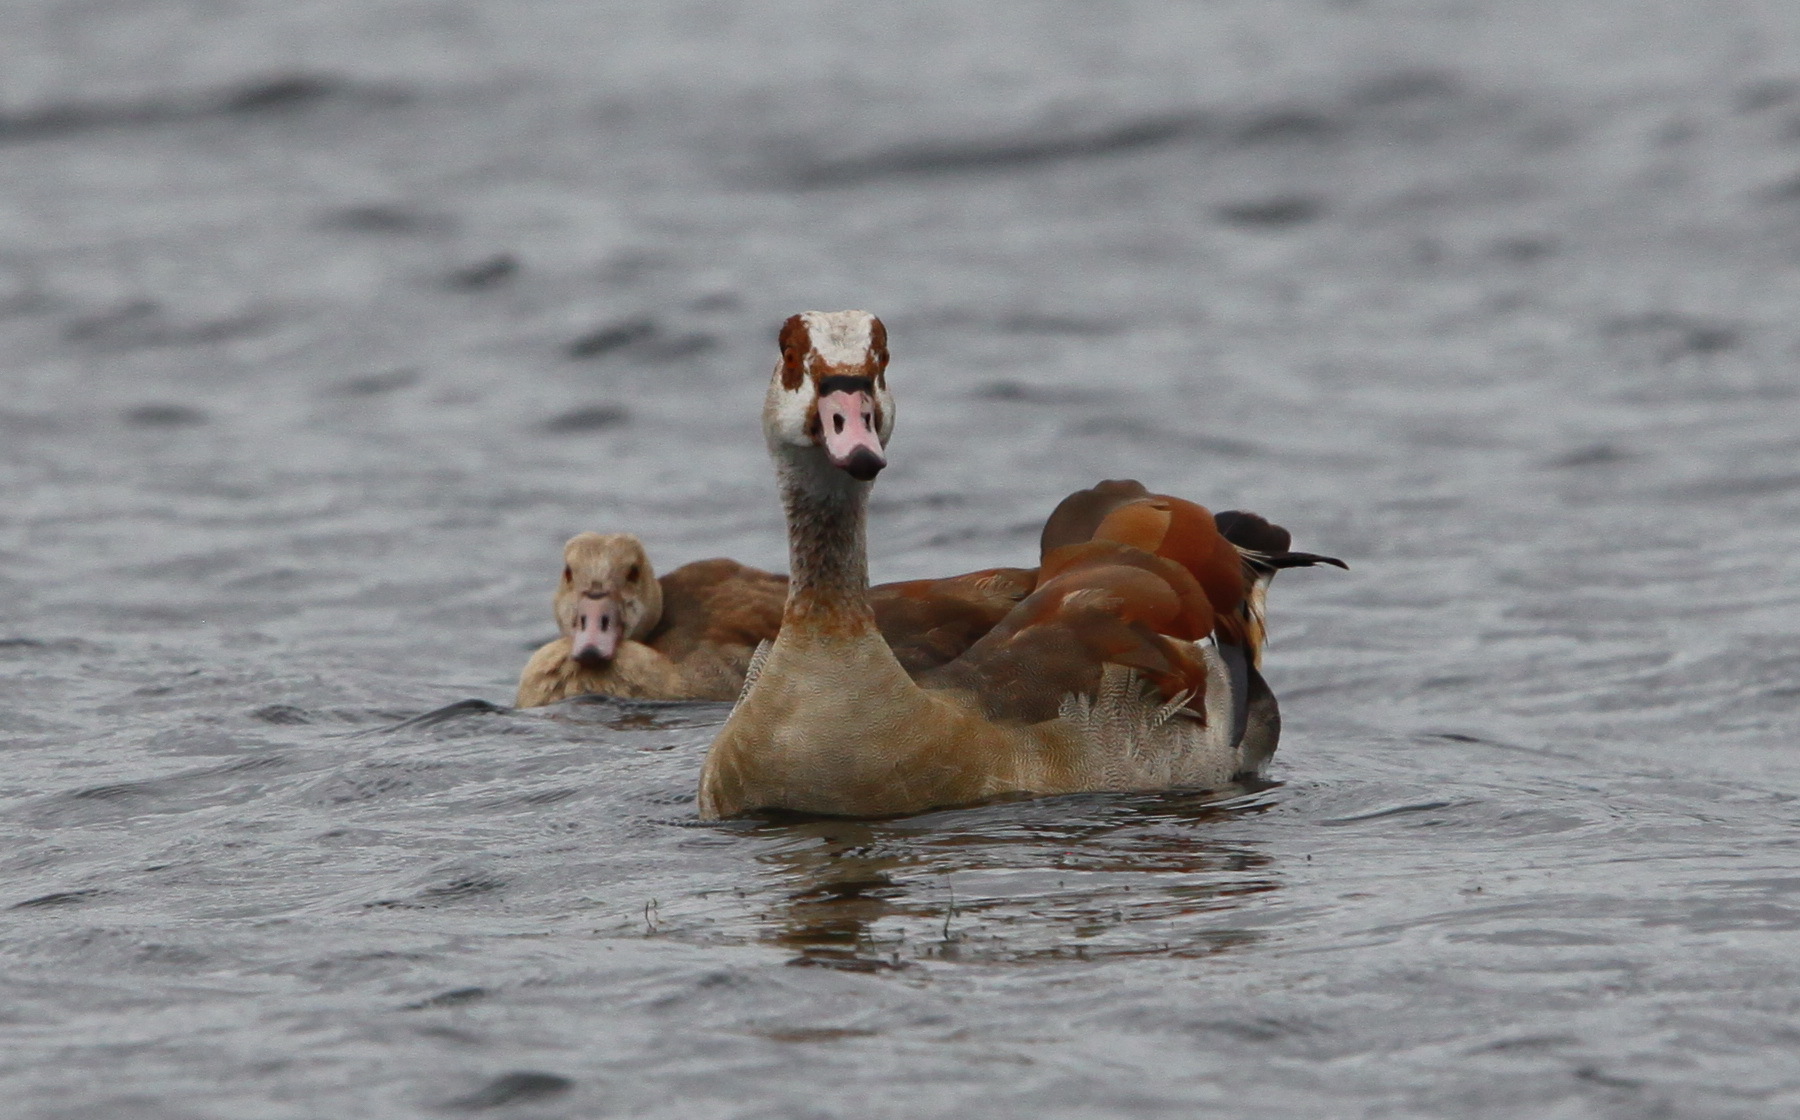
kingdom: Animalia
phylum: Chordata
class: Aves
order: Anseriformes
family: Anatidae
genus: Alopochen
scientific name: Alopochen aegyptiaca
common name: Egyptian goose
